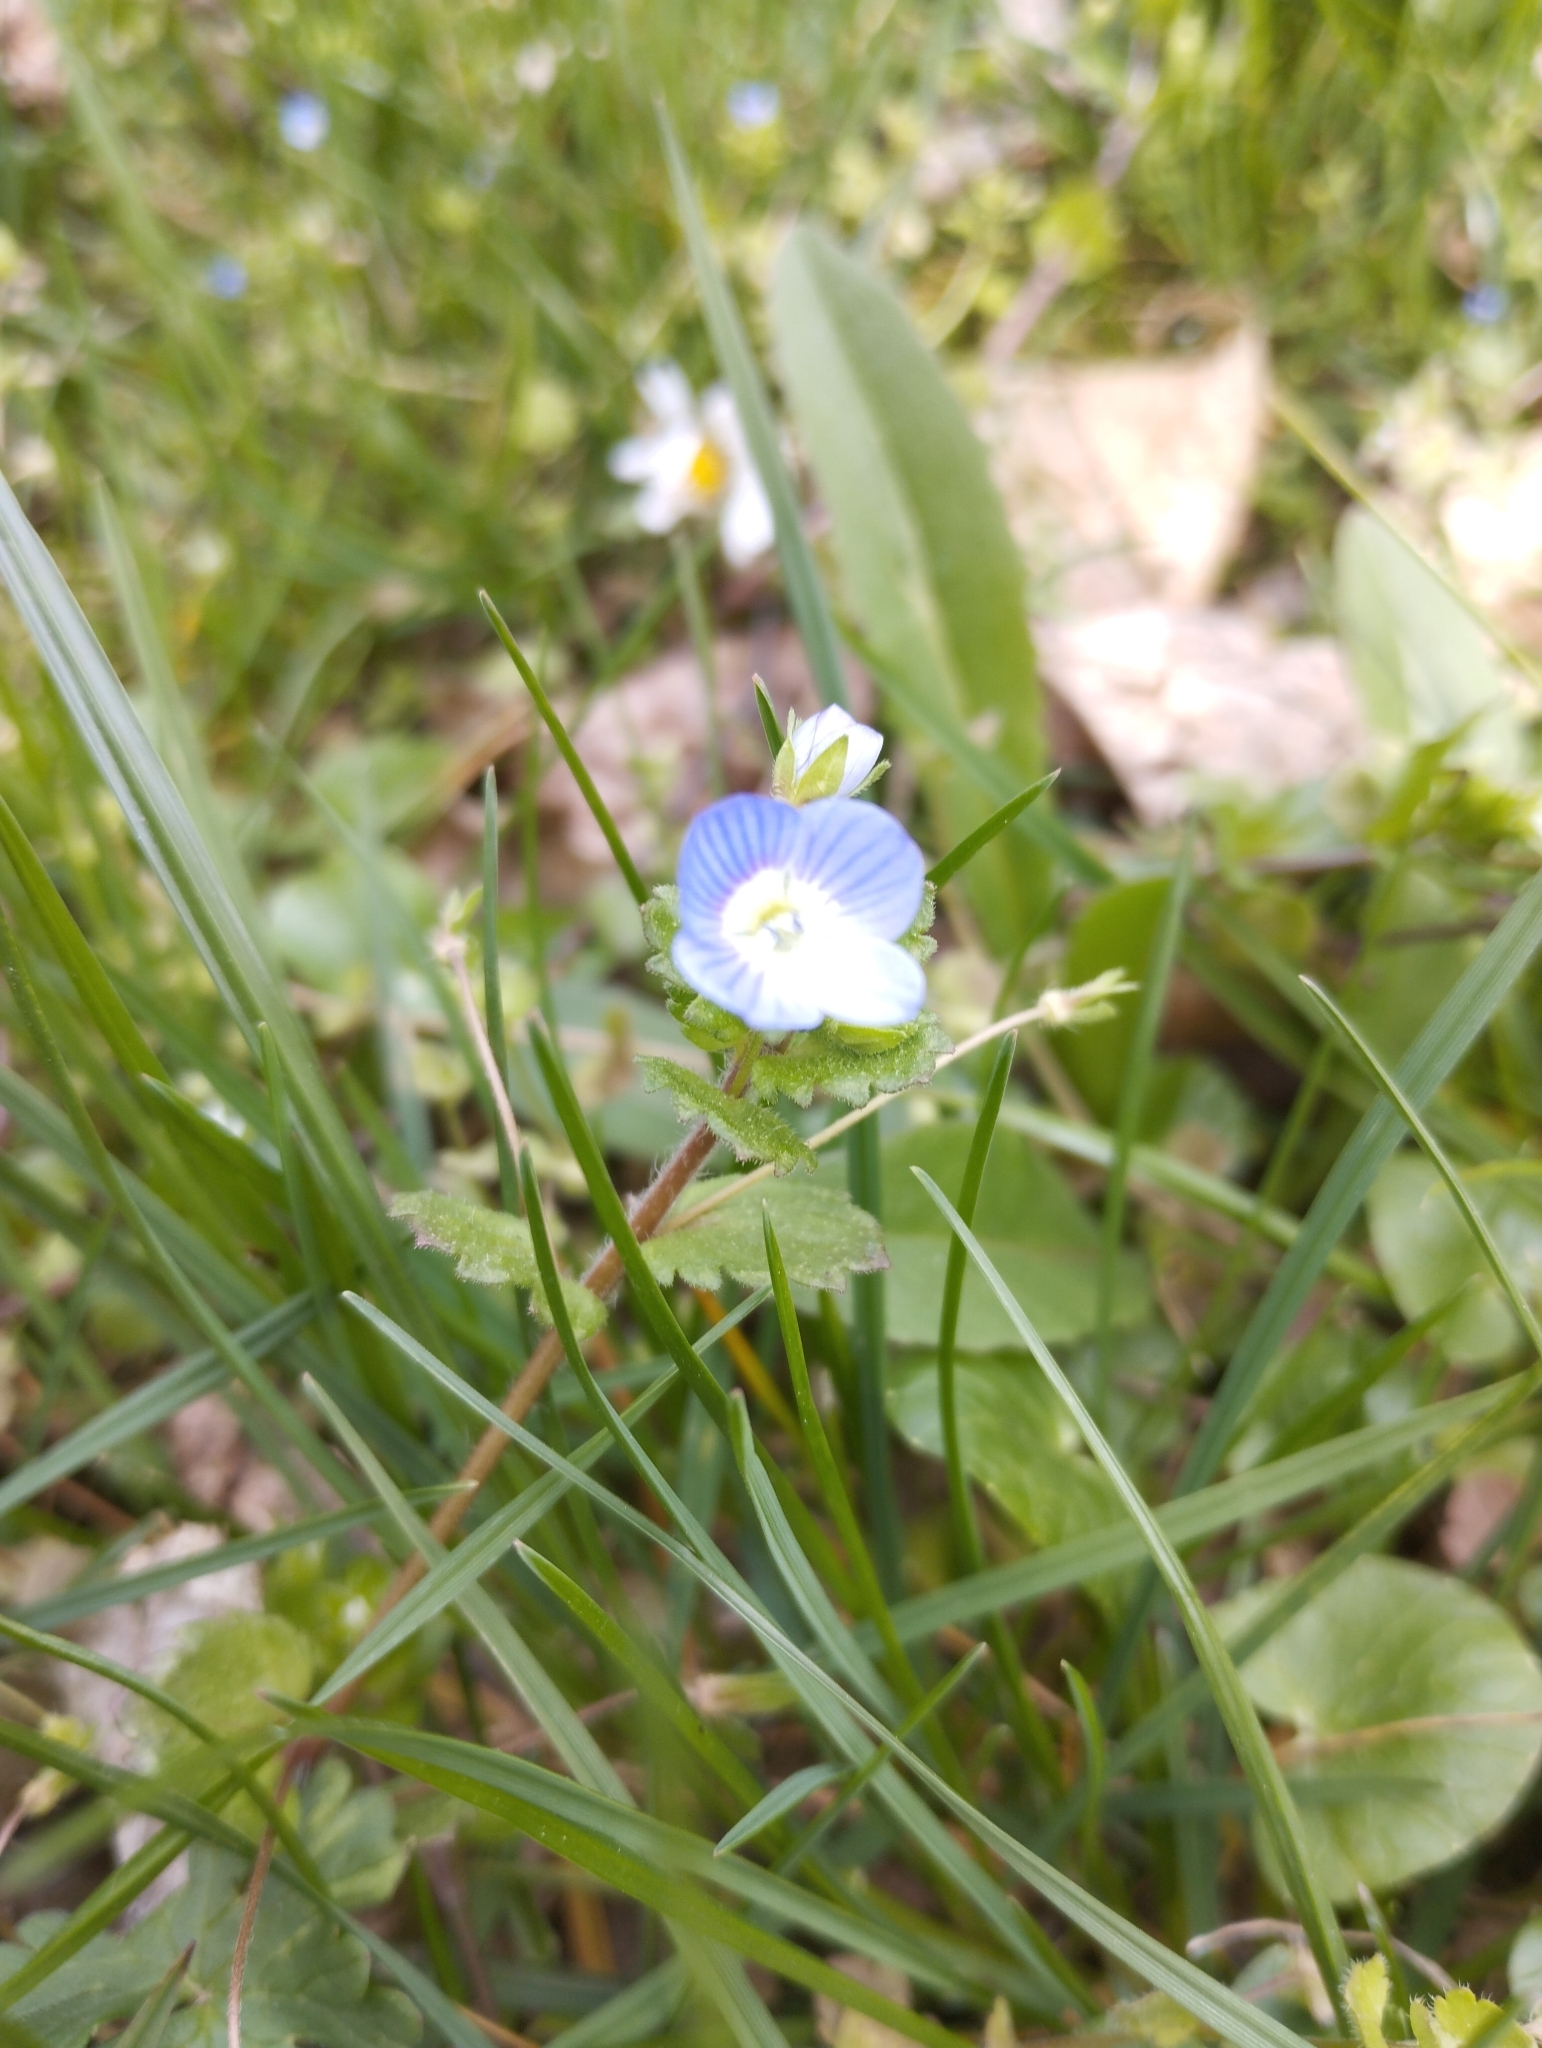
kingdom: Plantae
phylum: Tracheophyta
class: Magnoliopsida
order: Lamiales
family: Plantaginaceae
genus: Veronica
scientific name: Veronica persica
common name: Common field-speedwell
